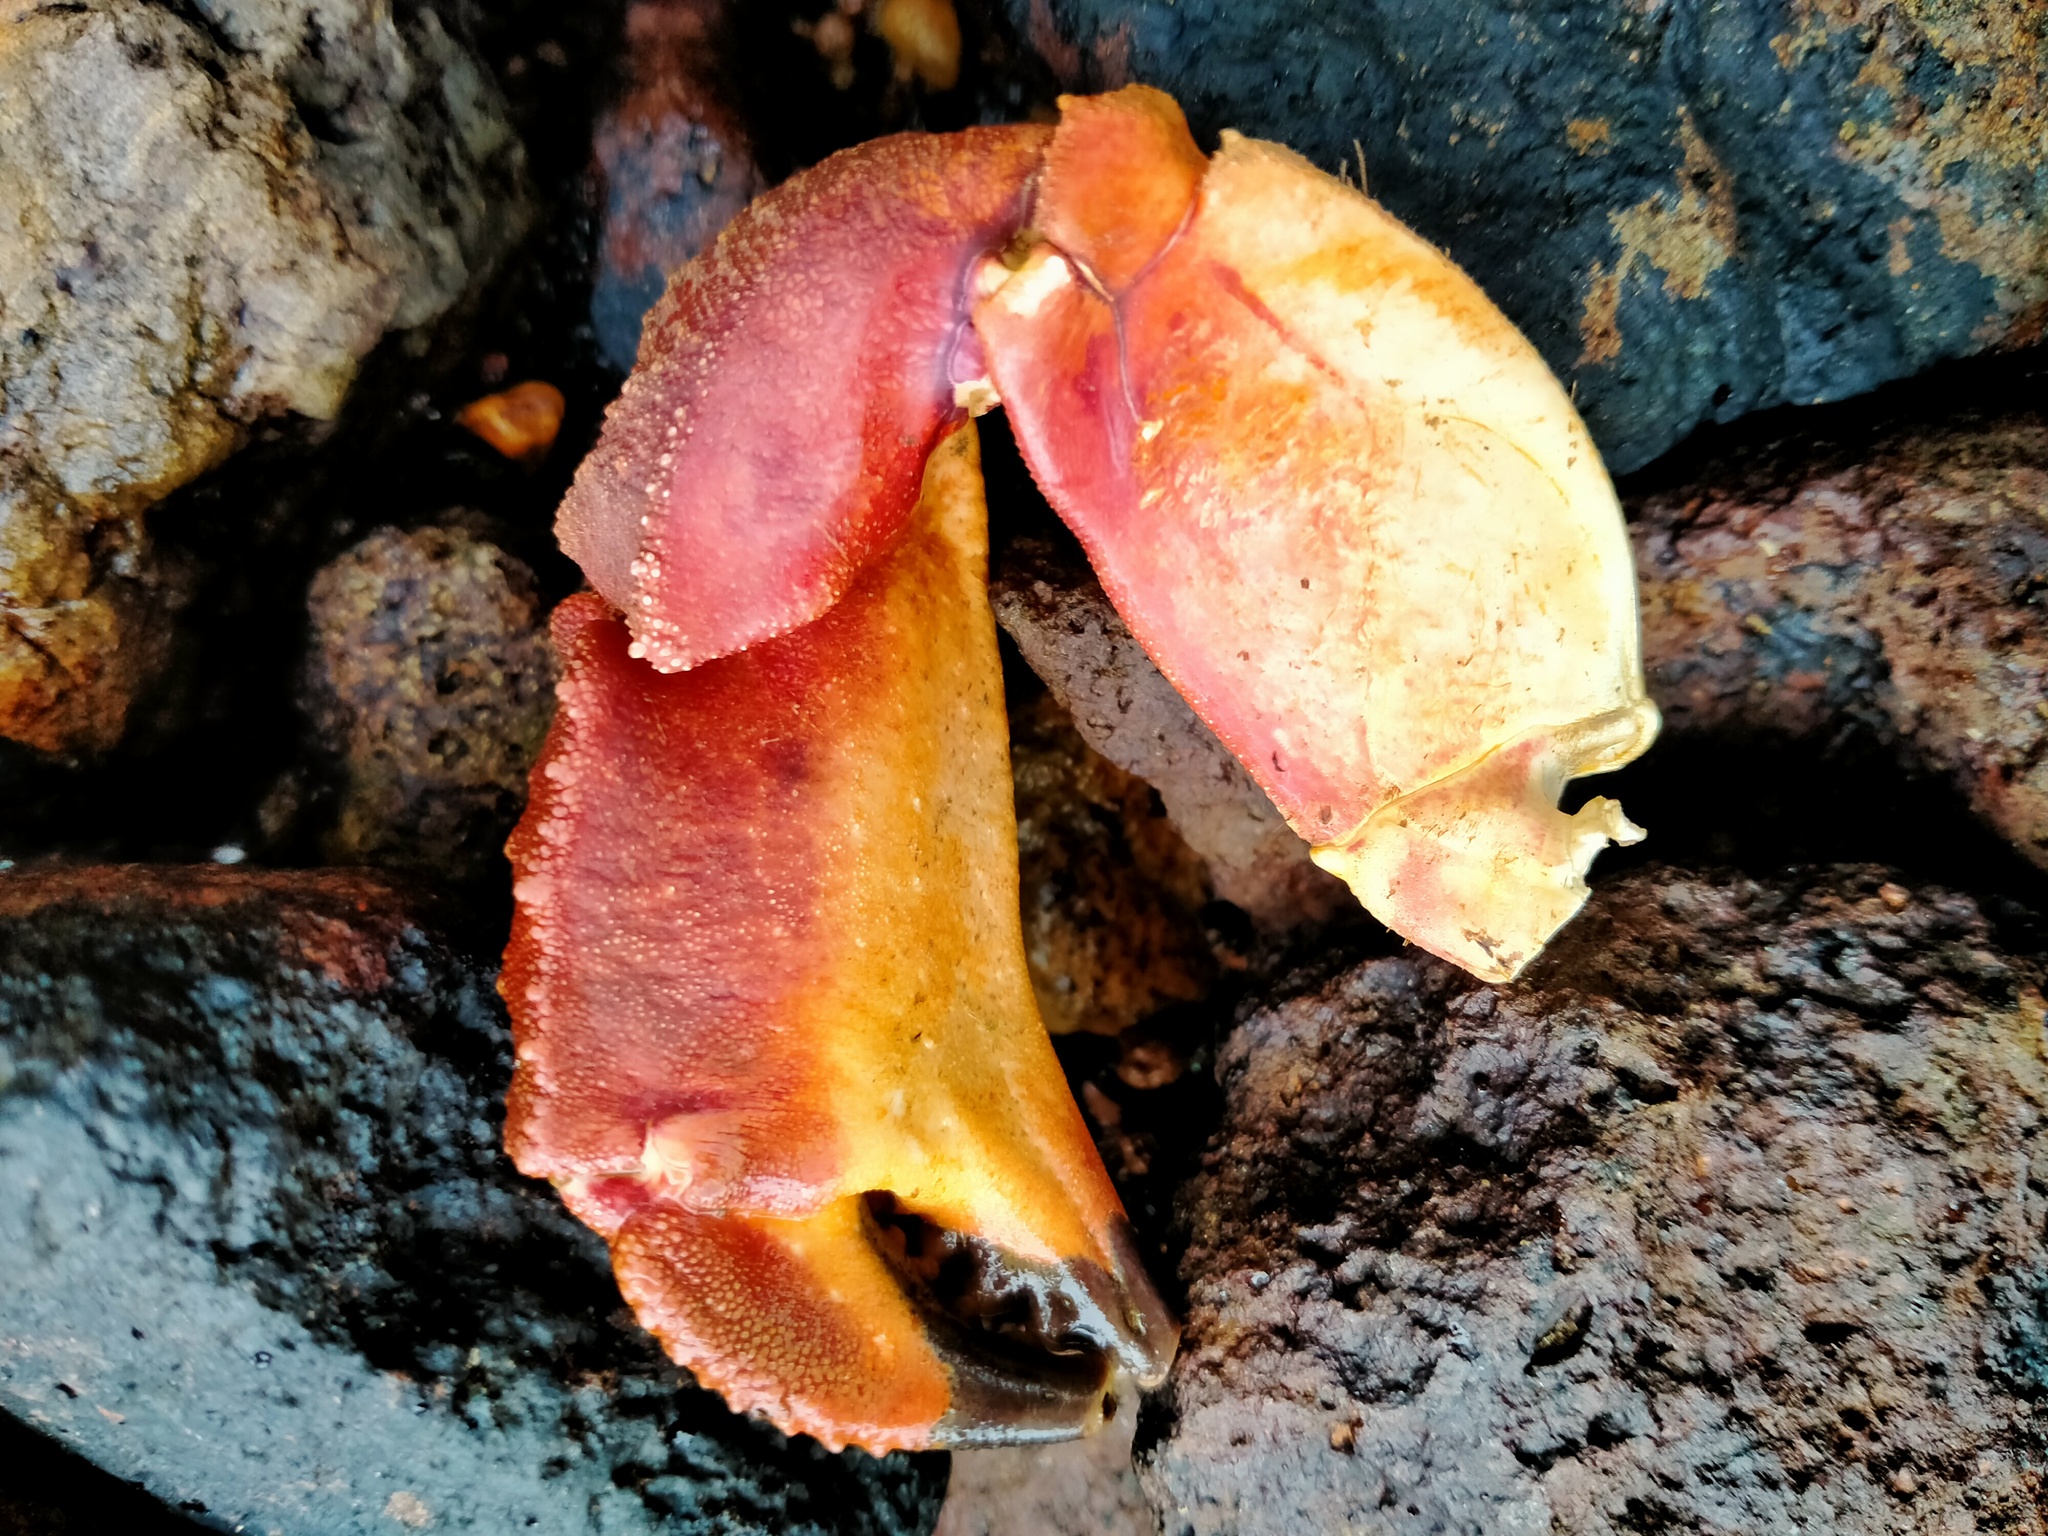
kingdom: Animalia
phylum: Arthropoda
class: Malacostraca
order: Decapoda
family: Cancridae
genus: Metacarcinus
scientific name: Metacarcinus novaezelandiae
